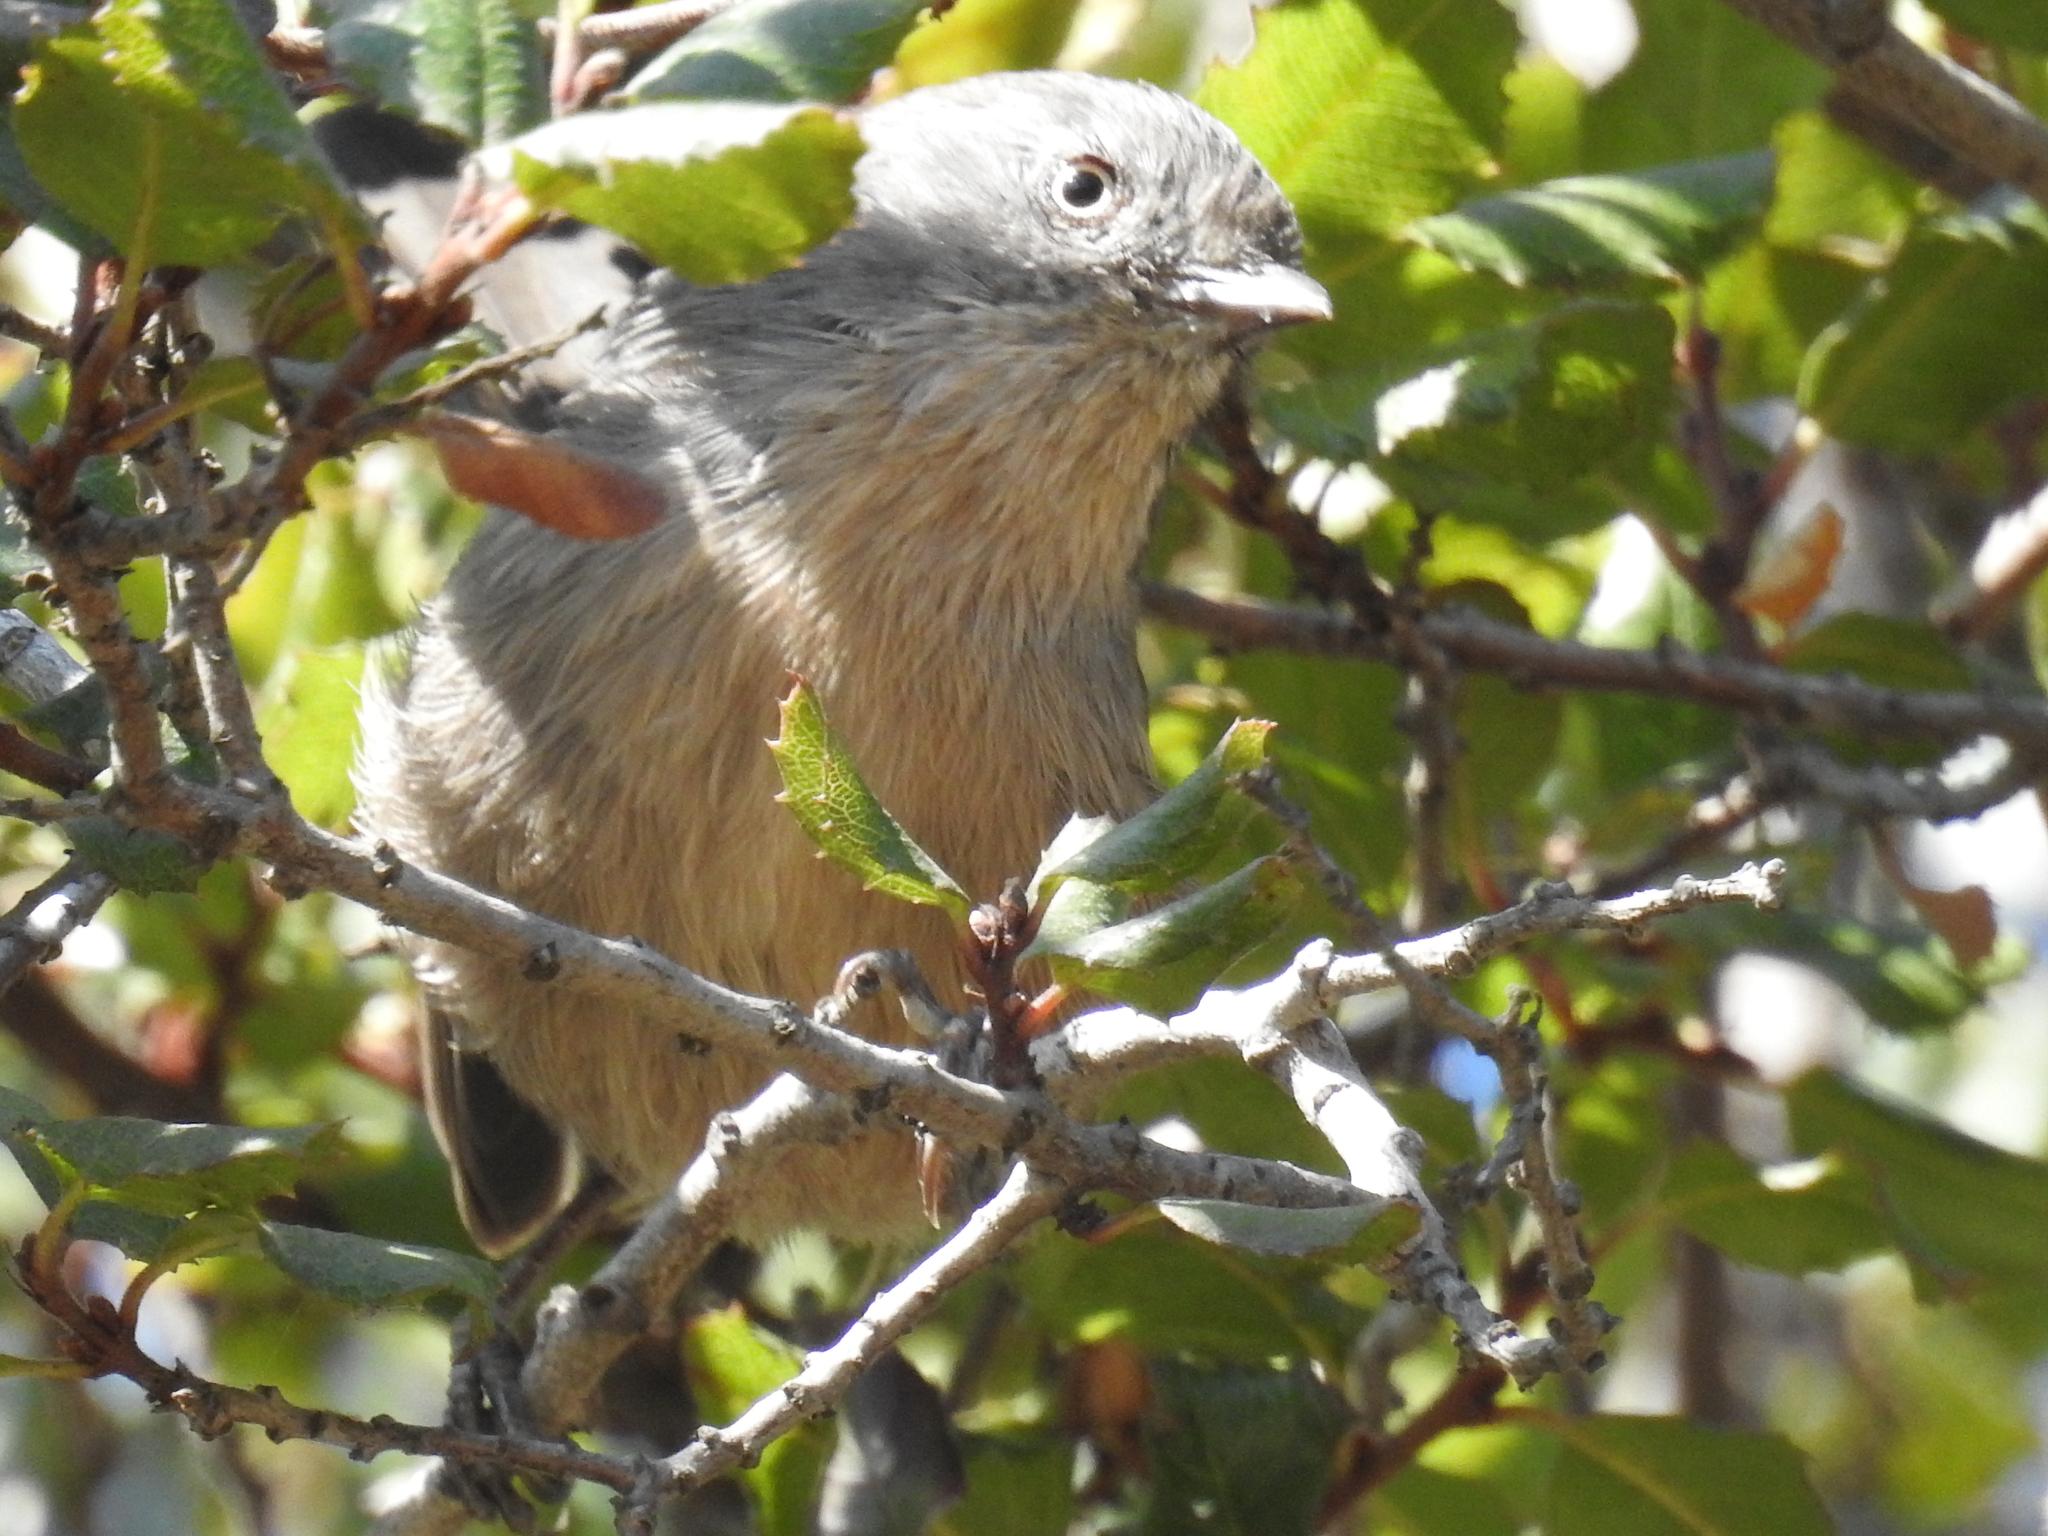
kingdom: Animalia
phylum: Chordata
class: Aves
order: Passeriformes
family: Sylviidae
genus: Chamaea
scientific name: Chamaea fasciata
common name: Wrentit
